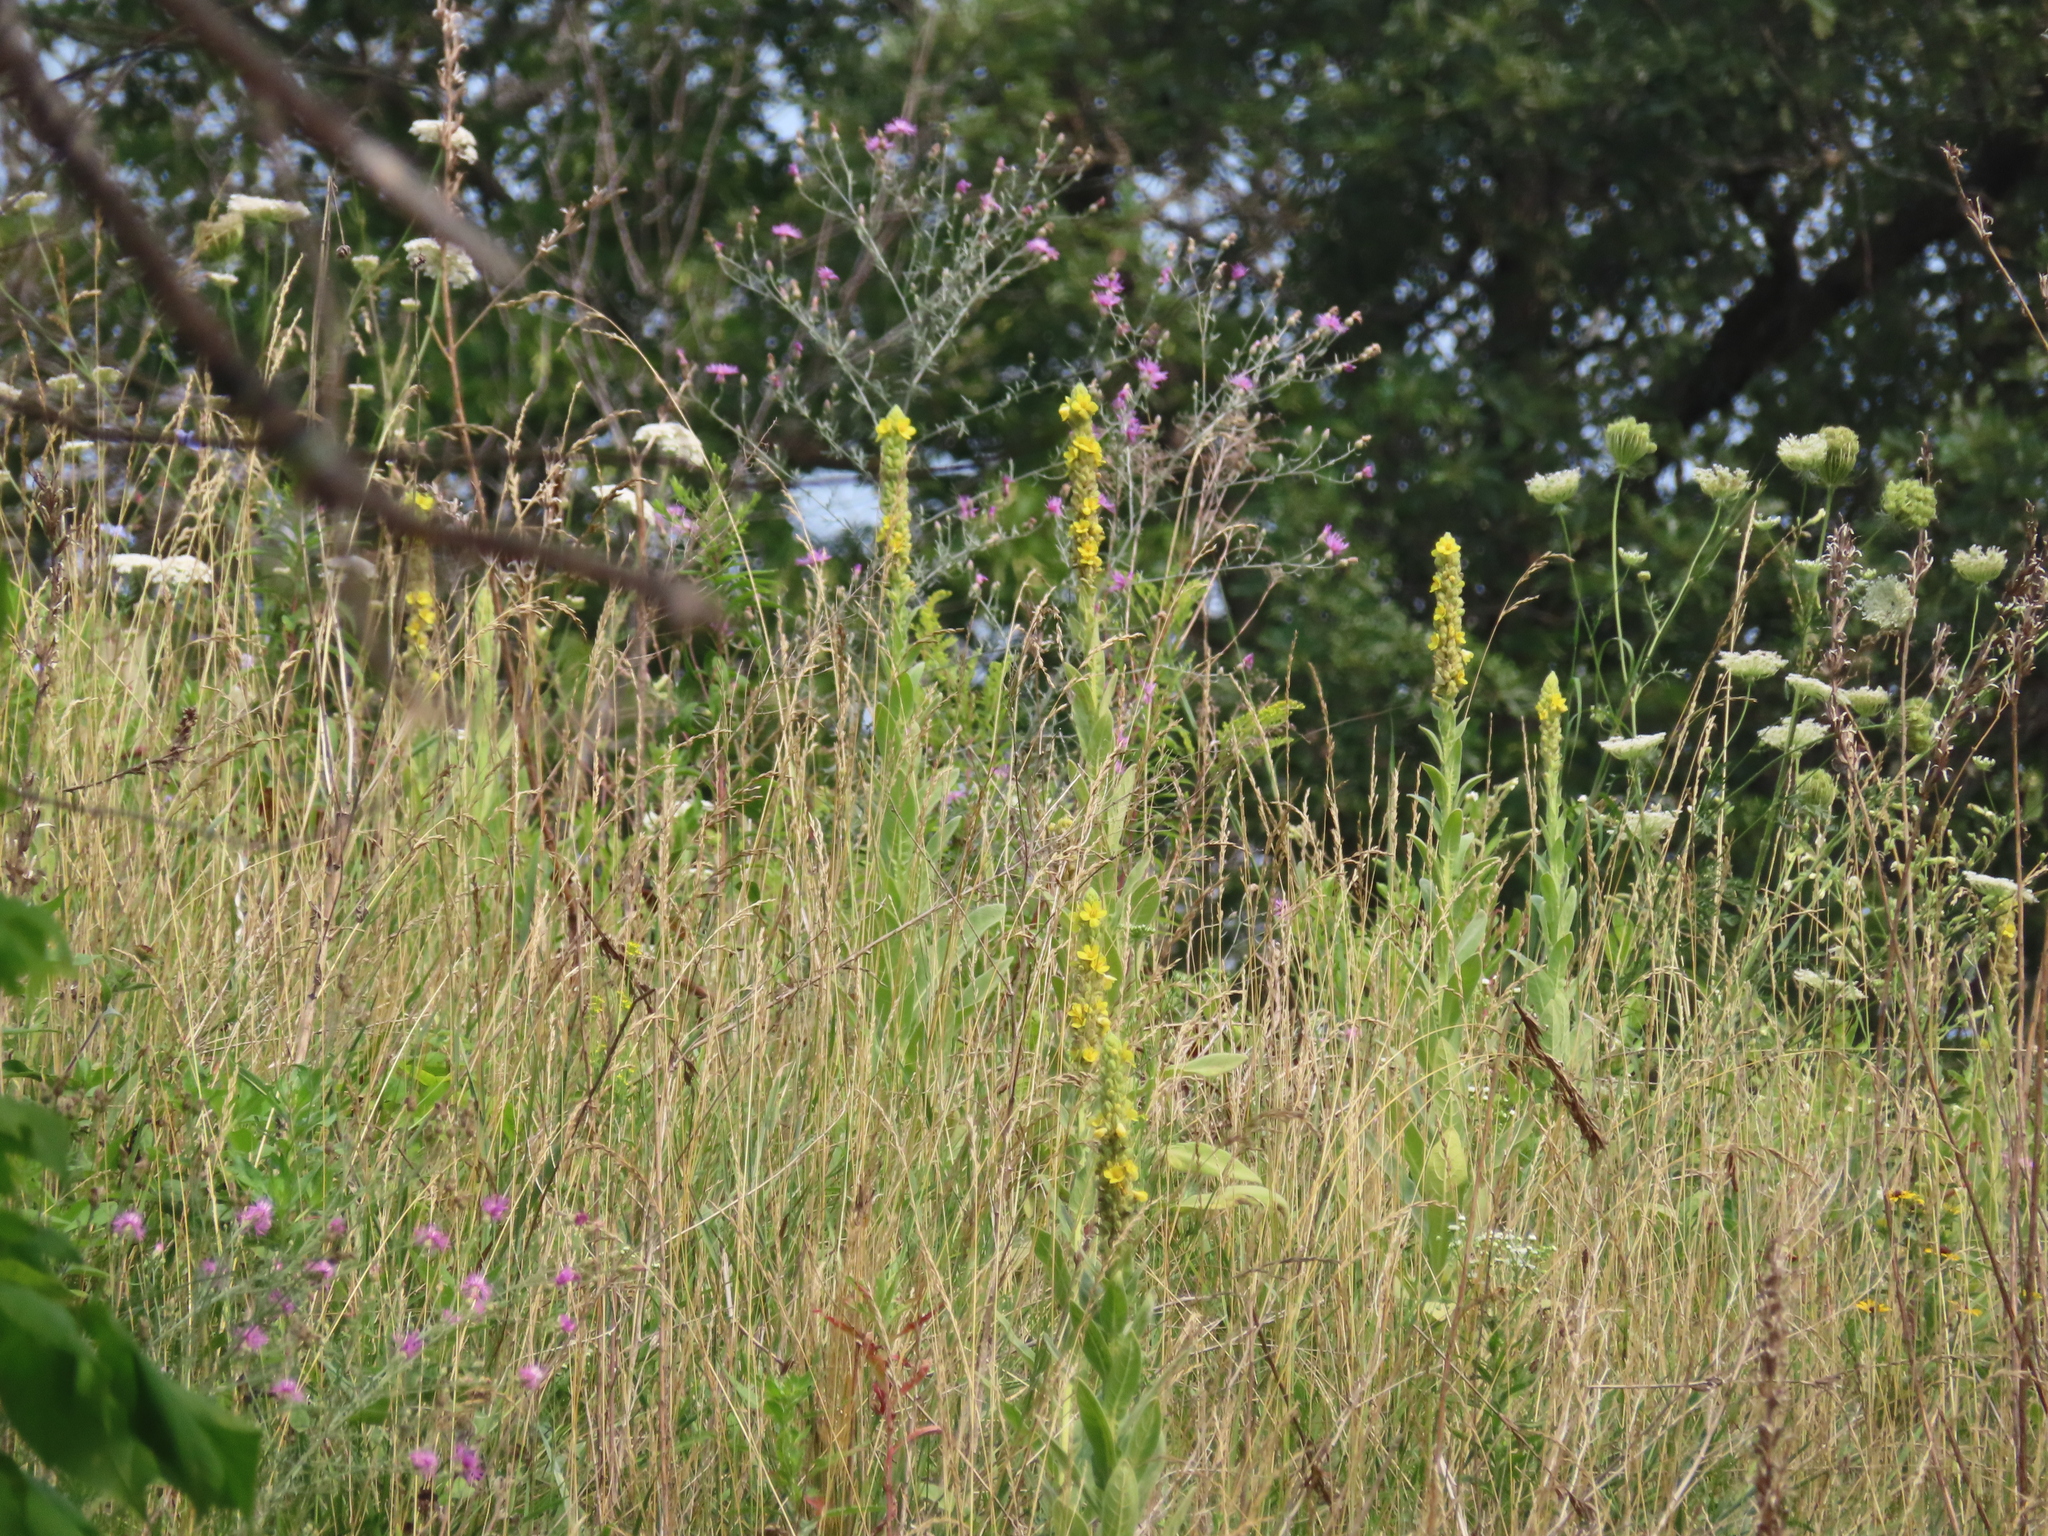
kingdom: Plantae
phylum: Tracheophyta
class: Magnoliopsida
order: Lamiales
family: Scrophulariaceae
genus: Verbascum
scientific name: Verbascum thapsus
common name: Common mullein
